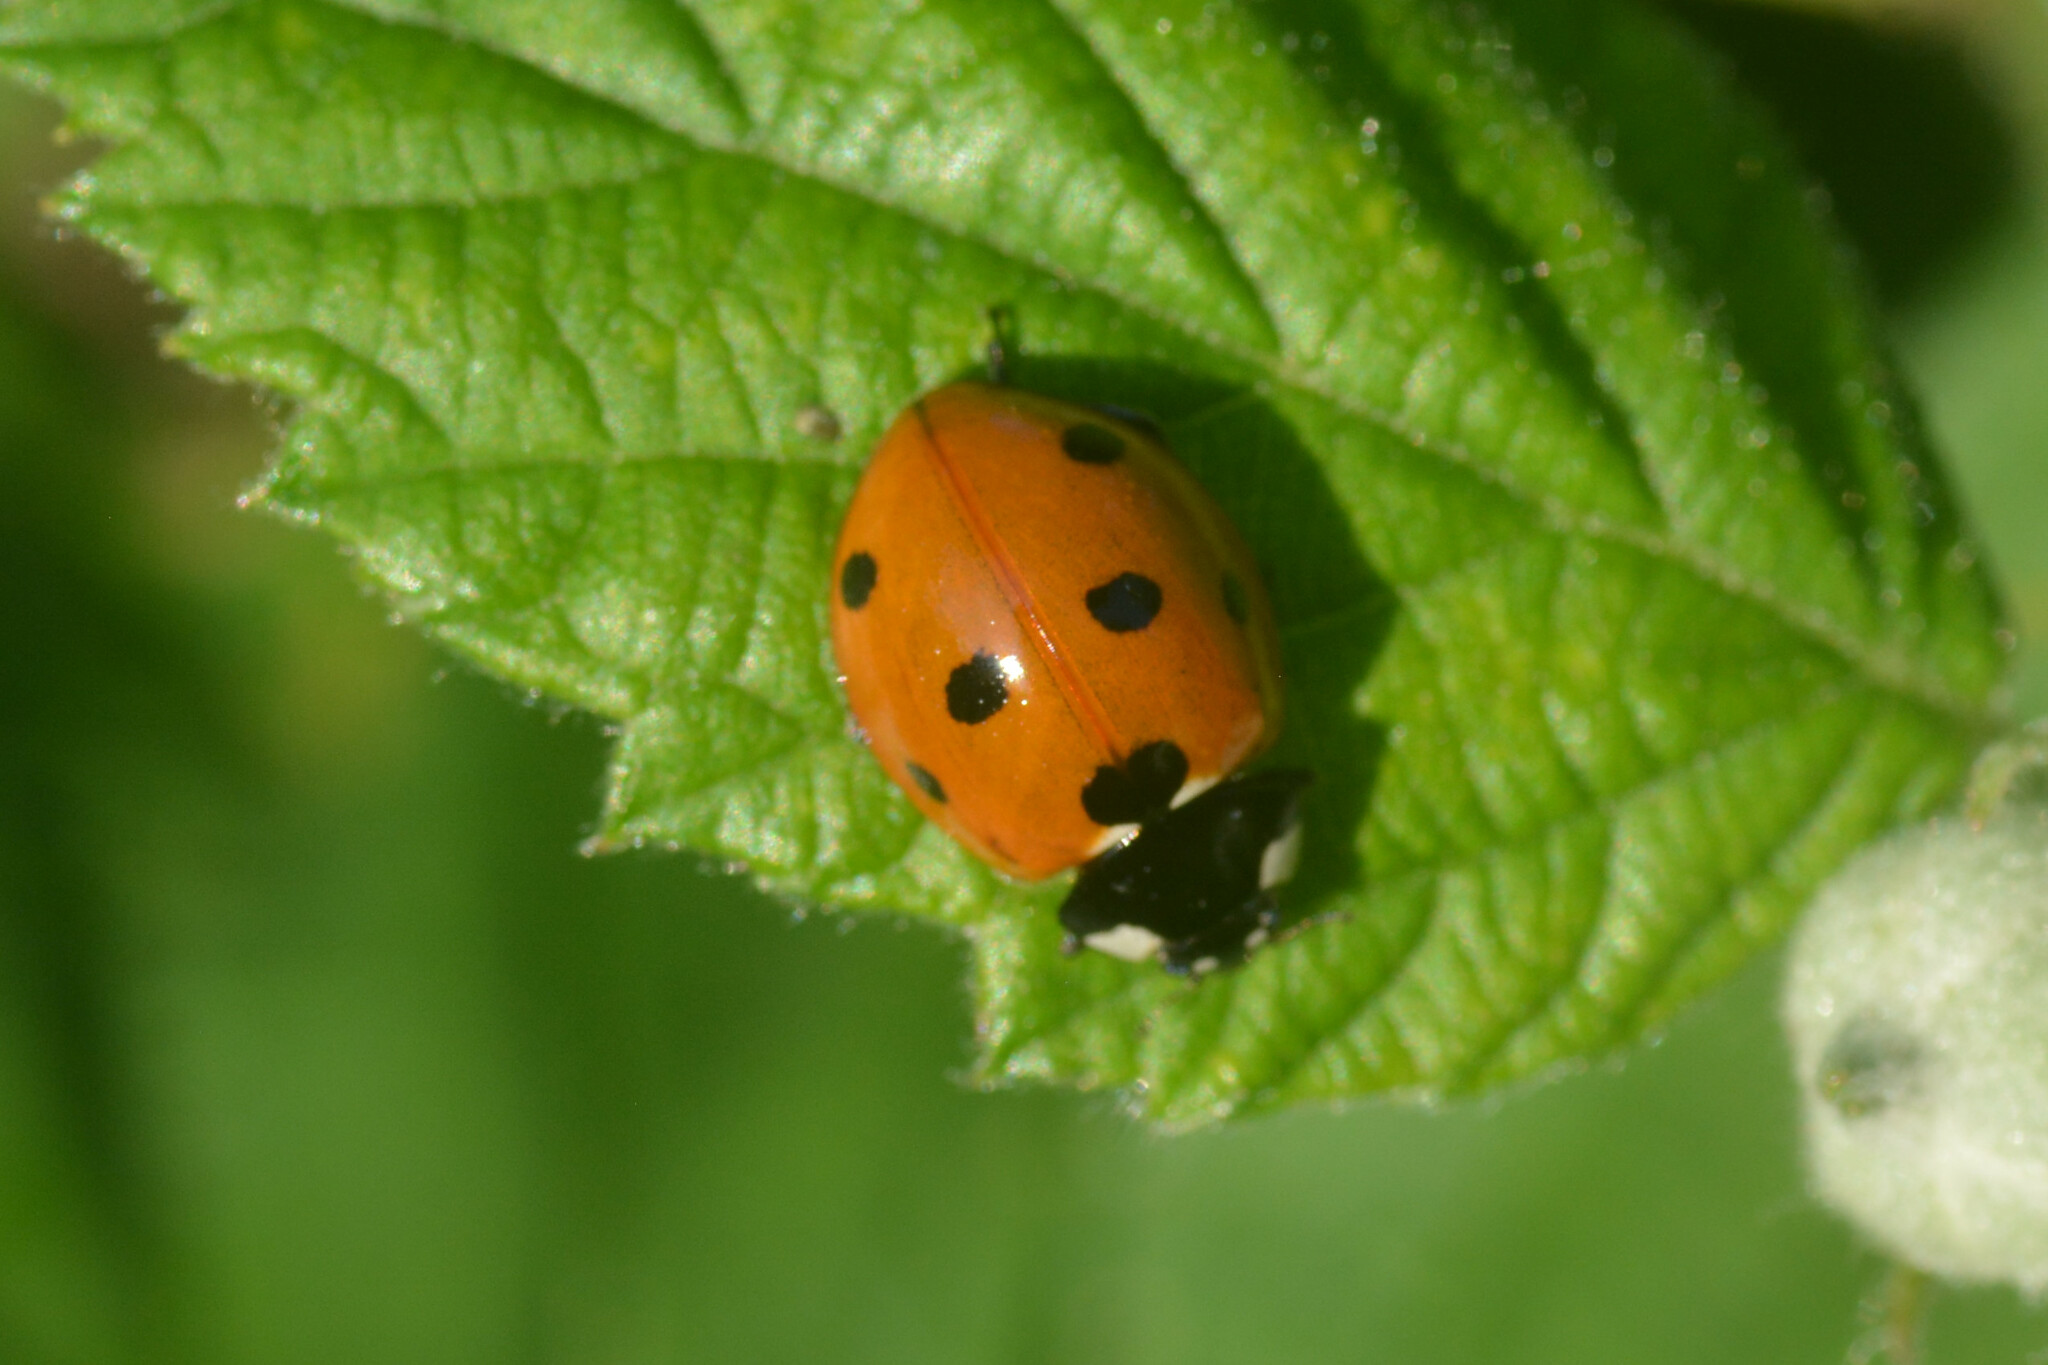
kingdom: Animalia
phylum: Arthropoda
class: Insecta
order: Coleoptera
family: Coccinellidae
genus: Coccinella
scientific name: Coccinella septempunctata
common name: Sevenspotted lady beetle
